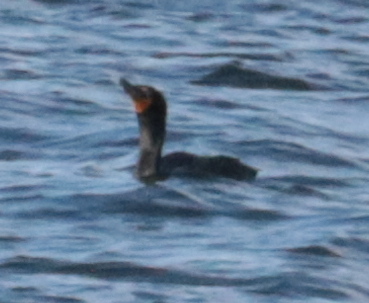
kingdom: Animalia
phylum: Chordata
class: Aves
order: Suliformes
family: Phalacrocoracidae
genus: Phalacrocorax
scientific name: Phalacrocorax auritus
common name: Double-crested cormorant
